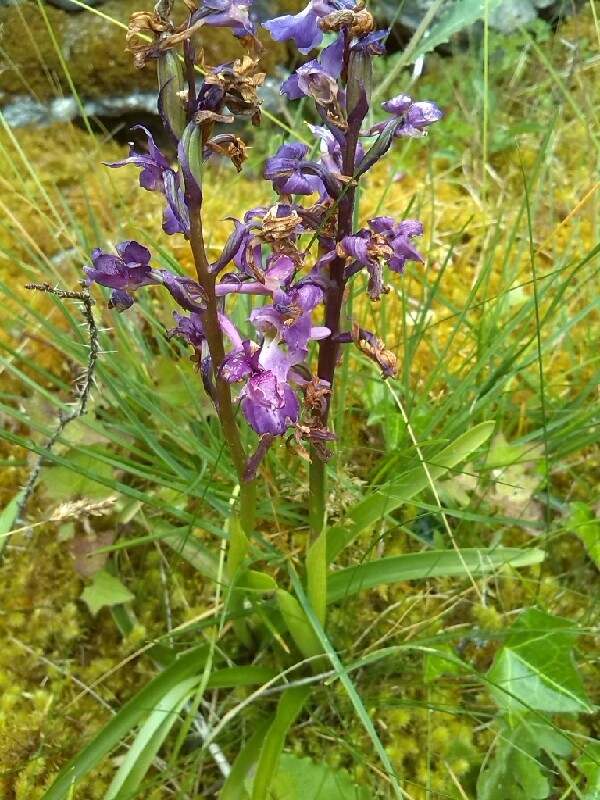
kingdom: Plantae
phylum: Tracheophyta
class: Liliopsida
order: Asparagales
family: Orchidaceae
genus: Orchis
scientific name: Orchis mascula
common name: Early-purple orchid
